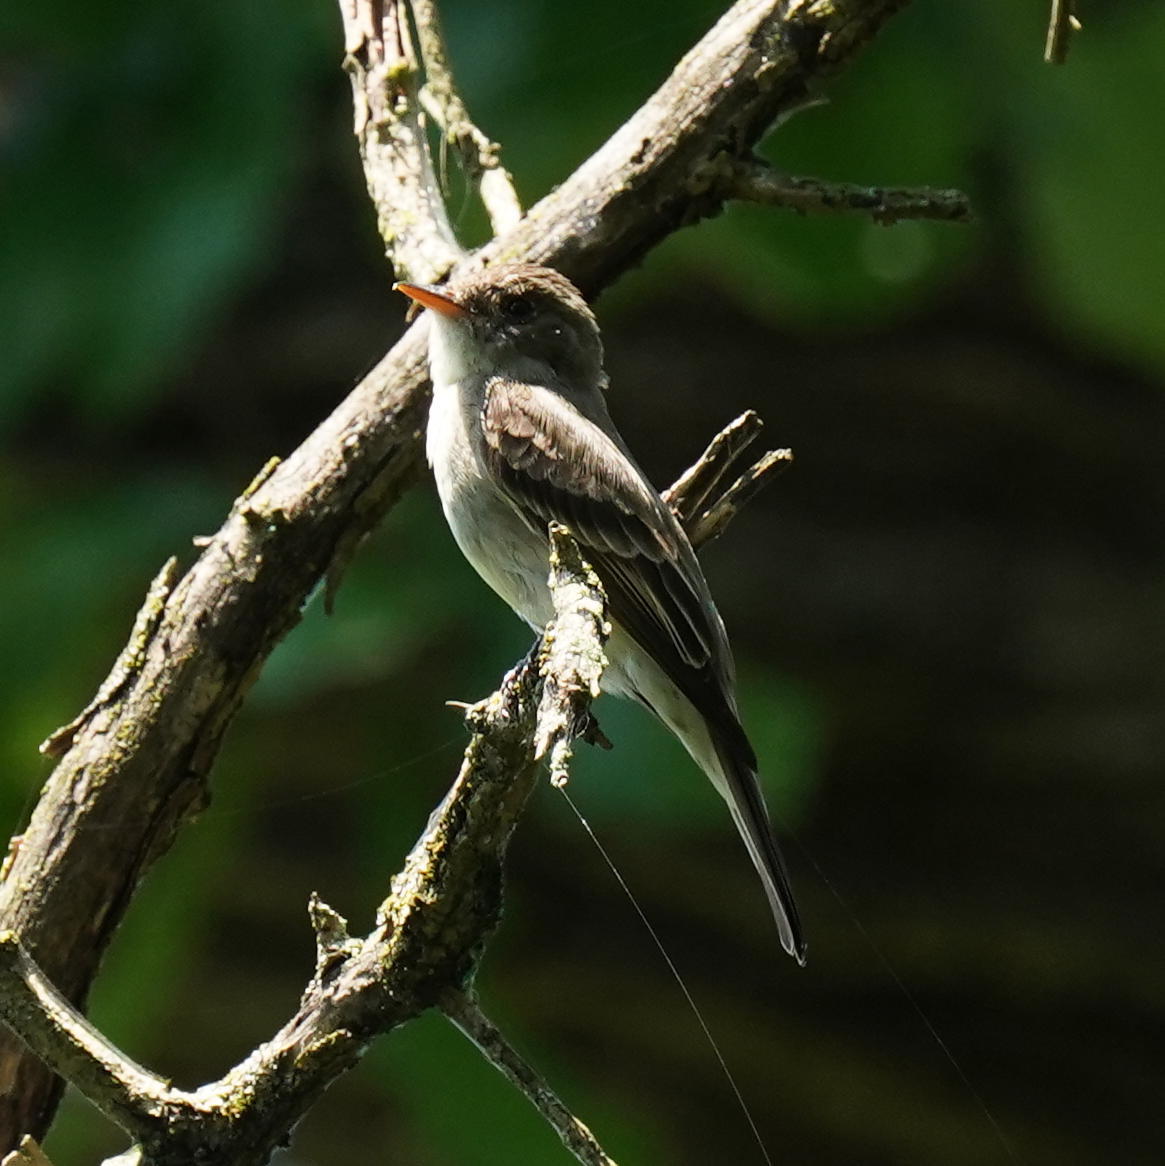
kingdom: Animalia
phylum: Chordata
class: Aves
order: Passeriformes
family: Tyrannidae
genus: Contopus
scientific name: Contopus virens
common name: Eastern wood-pewee
